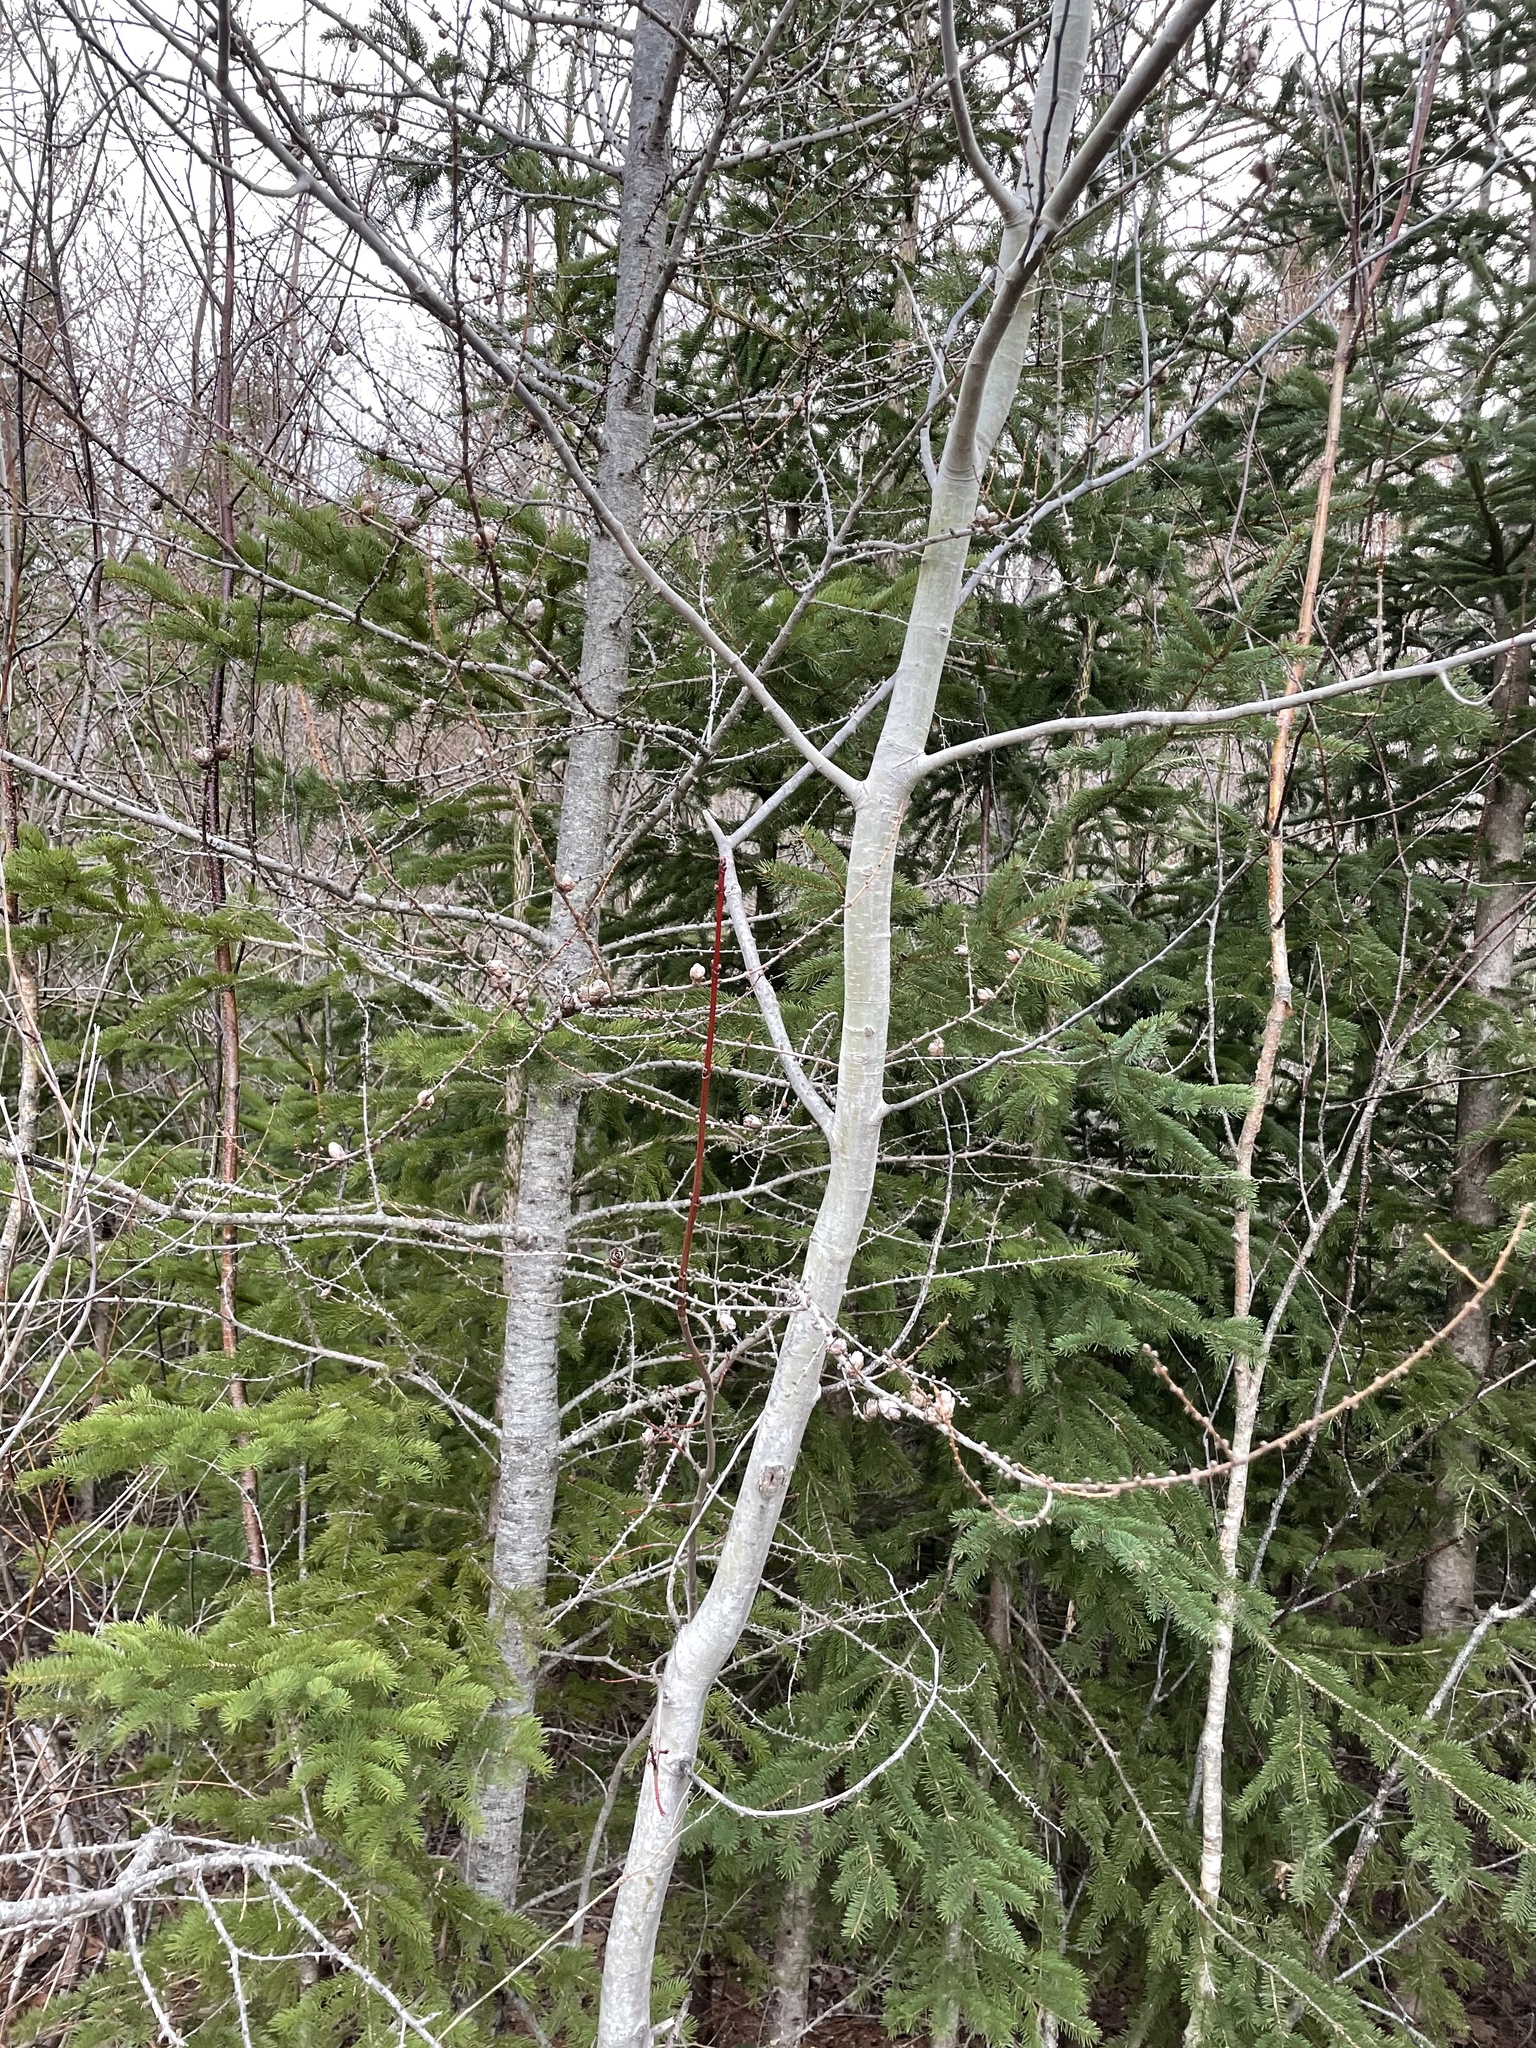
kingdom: Plantae
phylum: Tracheophyta
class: Pinopsida
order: Pinales
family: Pinaceae
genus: Larix
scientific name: Larix laricina
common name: American larch
